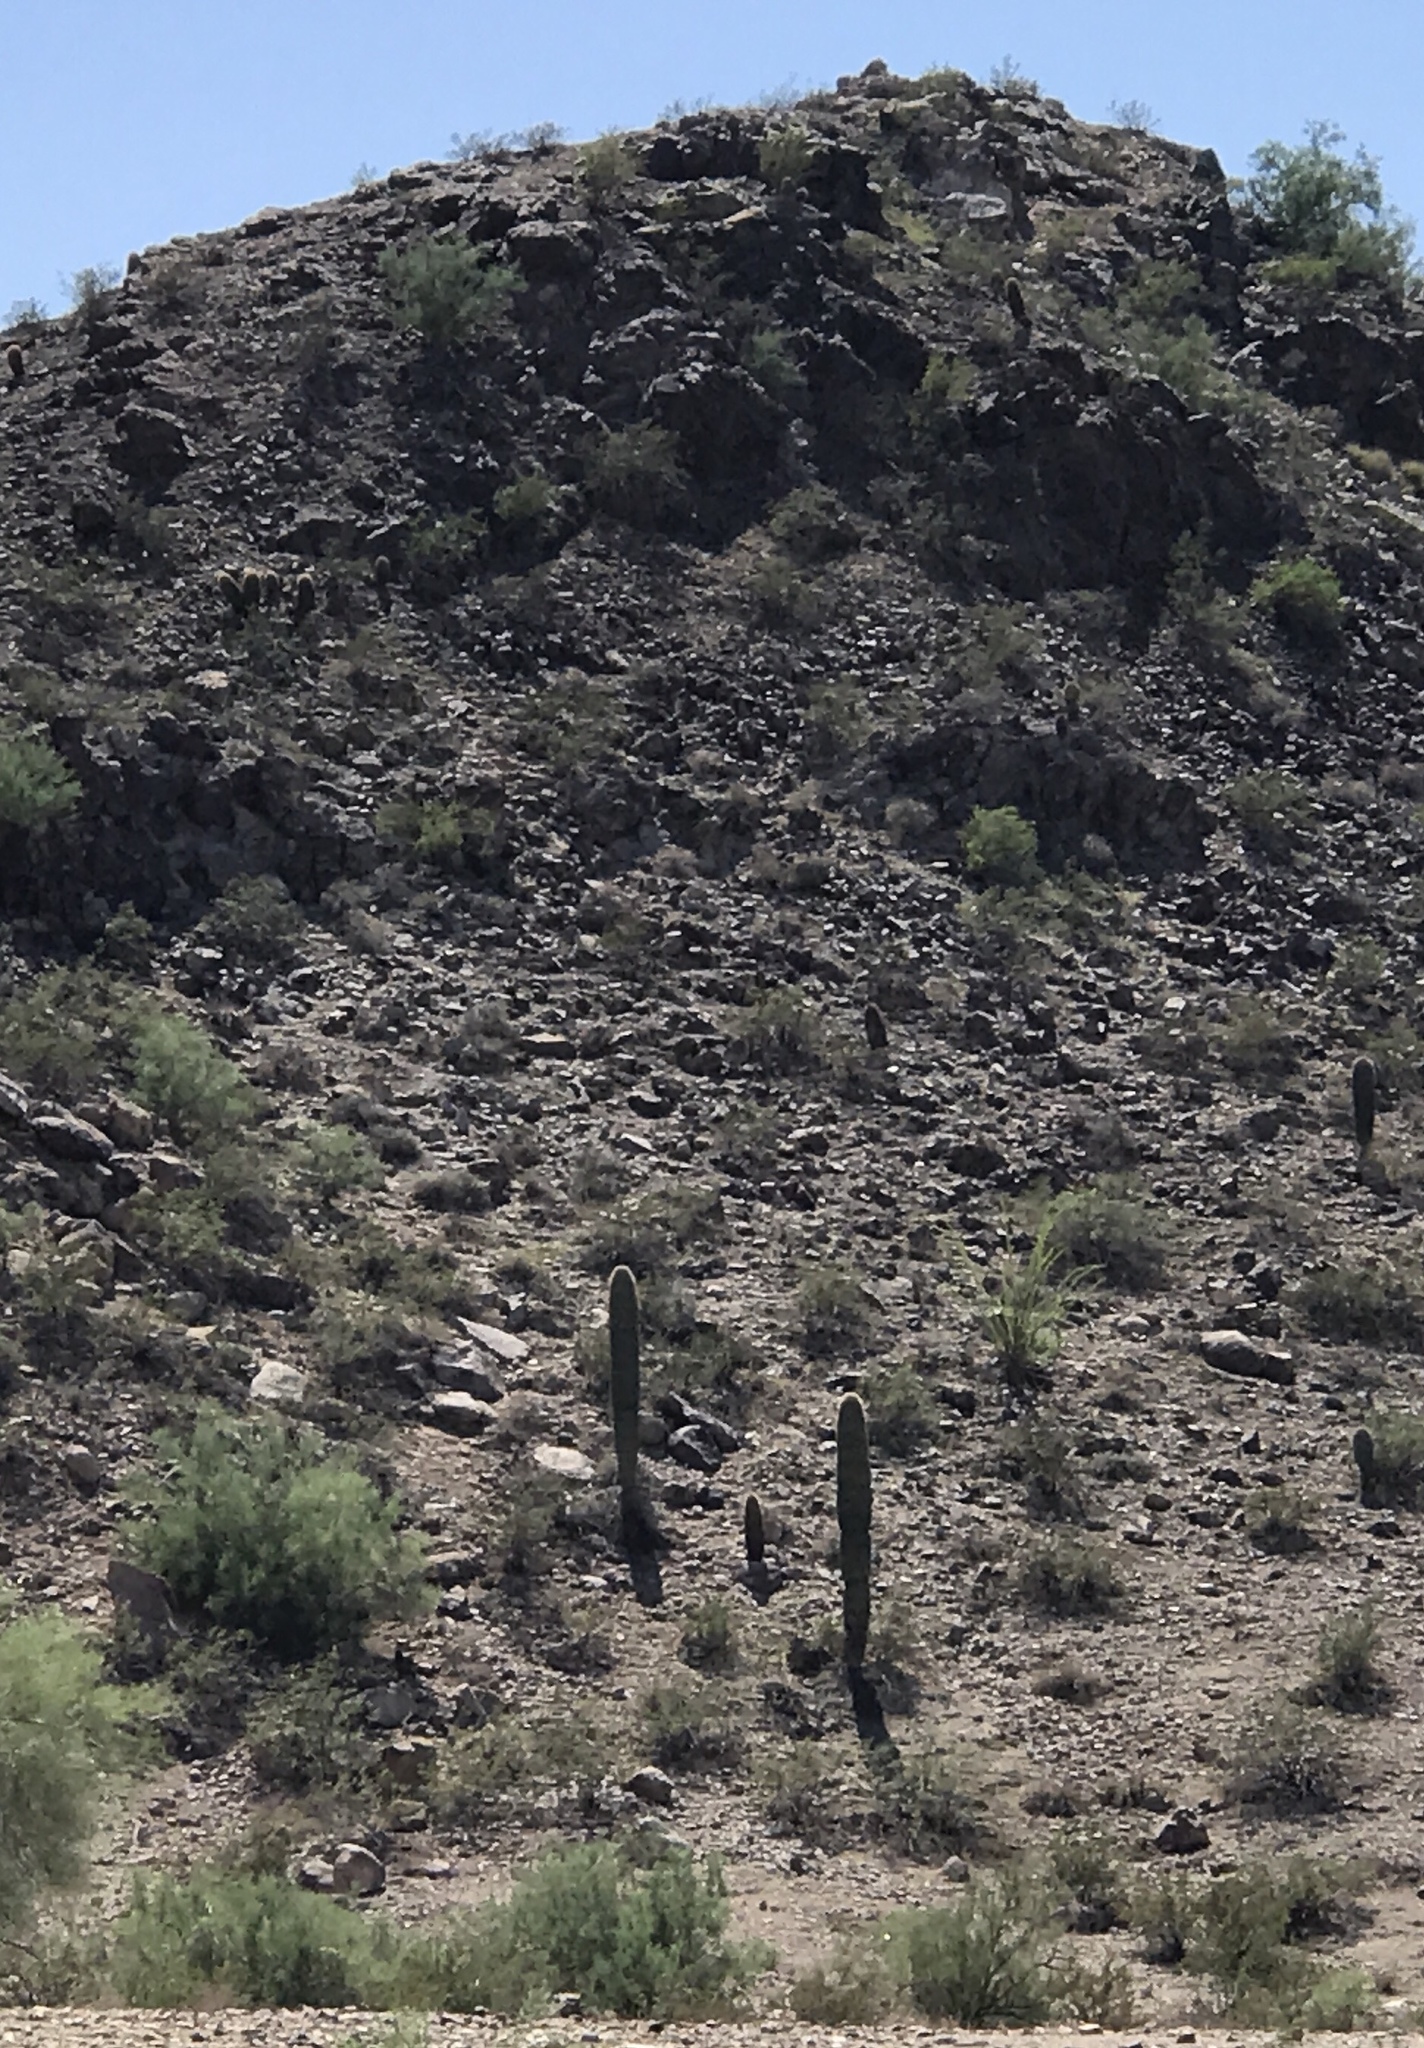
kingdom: Plantae
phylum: Tracheophyta
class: Magnoliopsida
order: Caryophyllales
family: Cactaceae
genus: Carnegiea
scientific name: Carnegiea gigantea
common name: Saguaro
